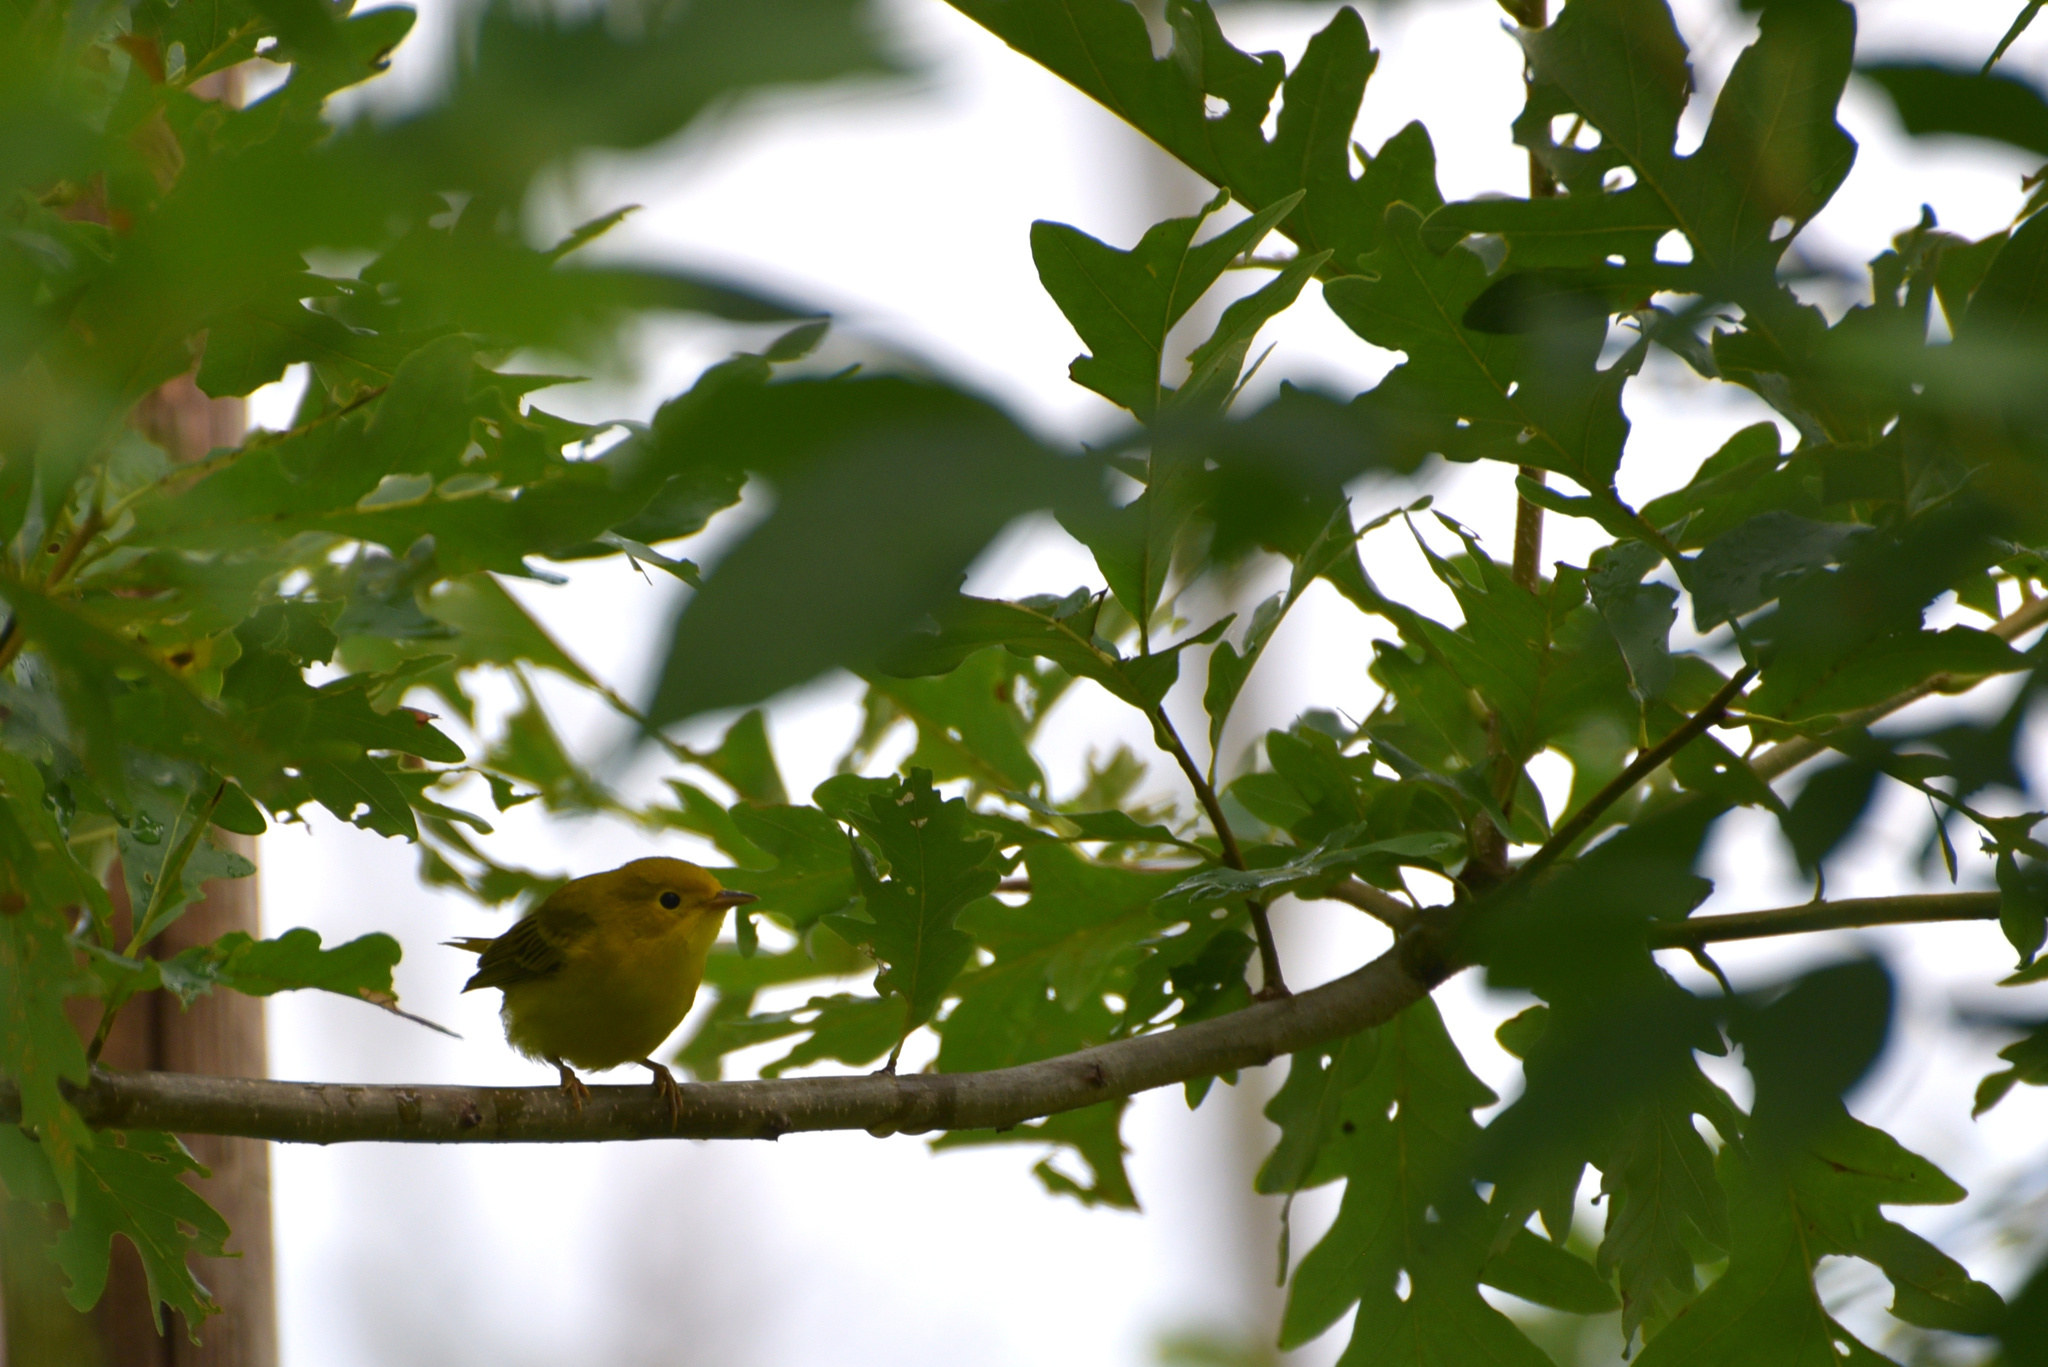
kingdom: Animalia
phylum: Chordata
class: Aves
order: Passeriformes
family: Parulidae
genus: Setophaga
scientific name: Setophaga petechia
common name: Yellow warbler
